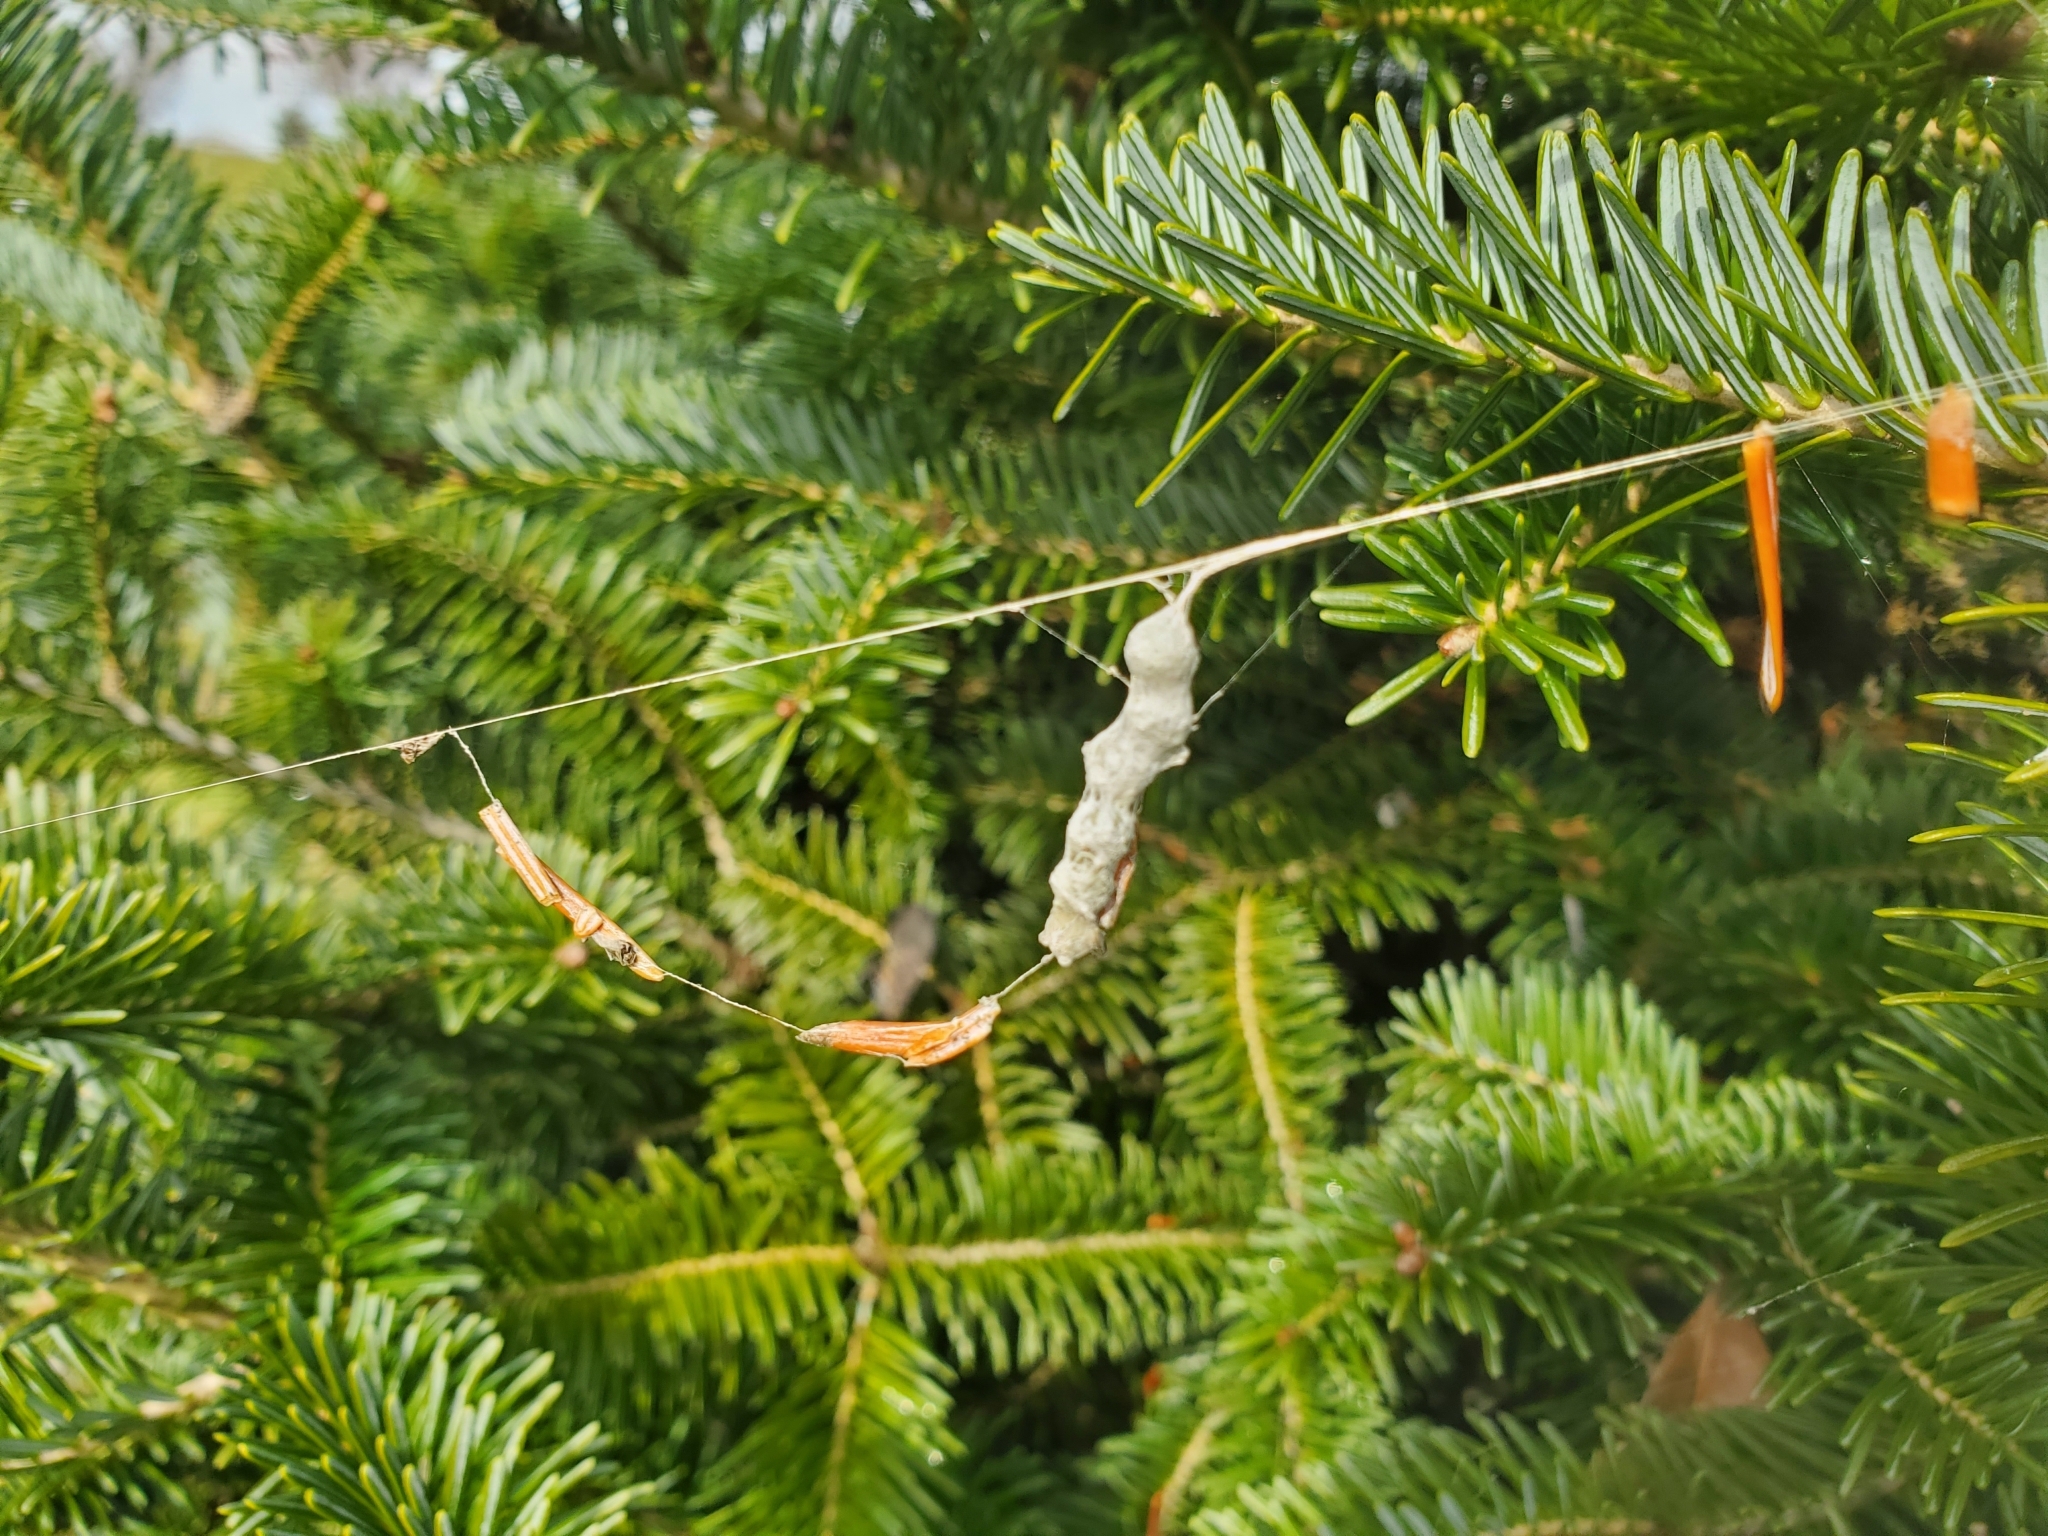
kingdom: Animalia
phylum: Arthropoda
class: Arachnida
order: Araneae
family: Araneidae
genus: Mecynogea
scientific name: Mecynogea lemniscata
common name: Orb weavers
